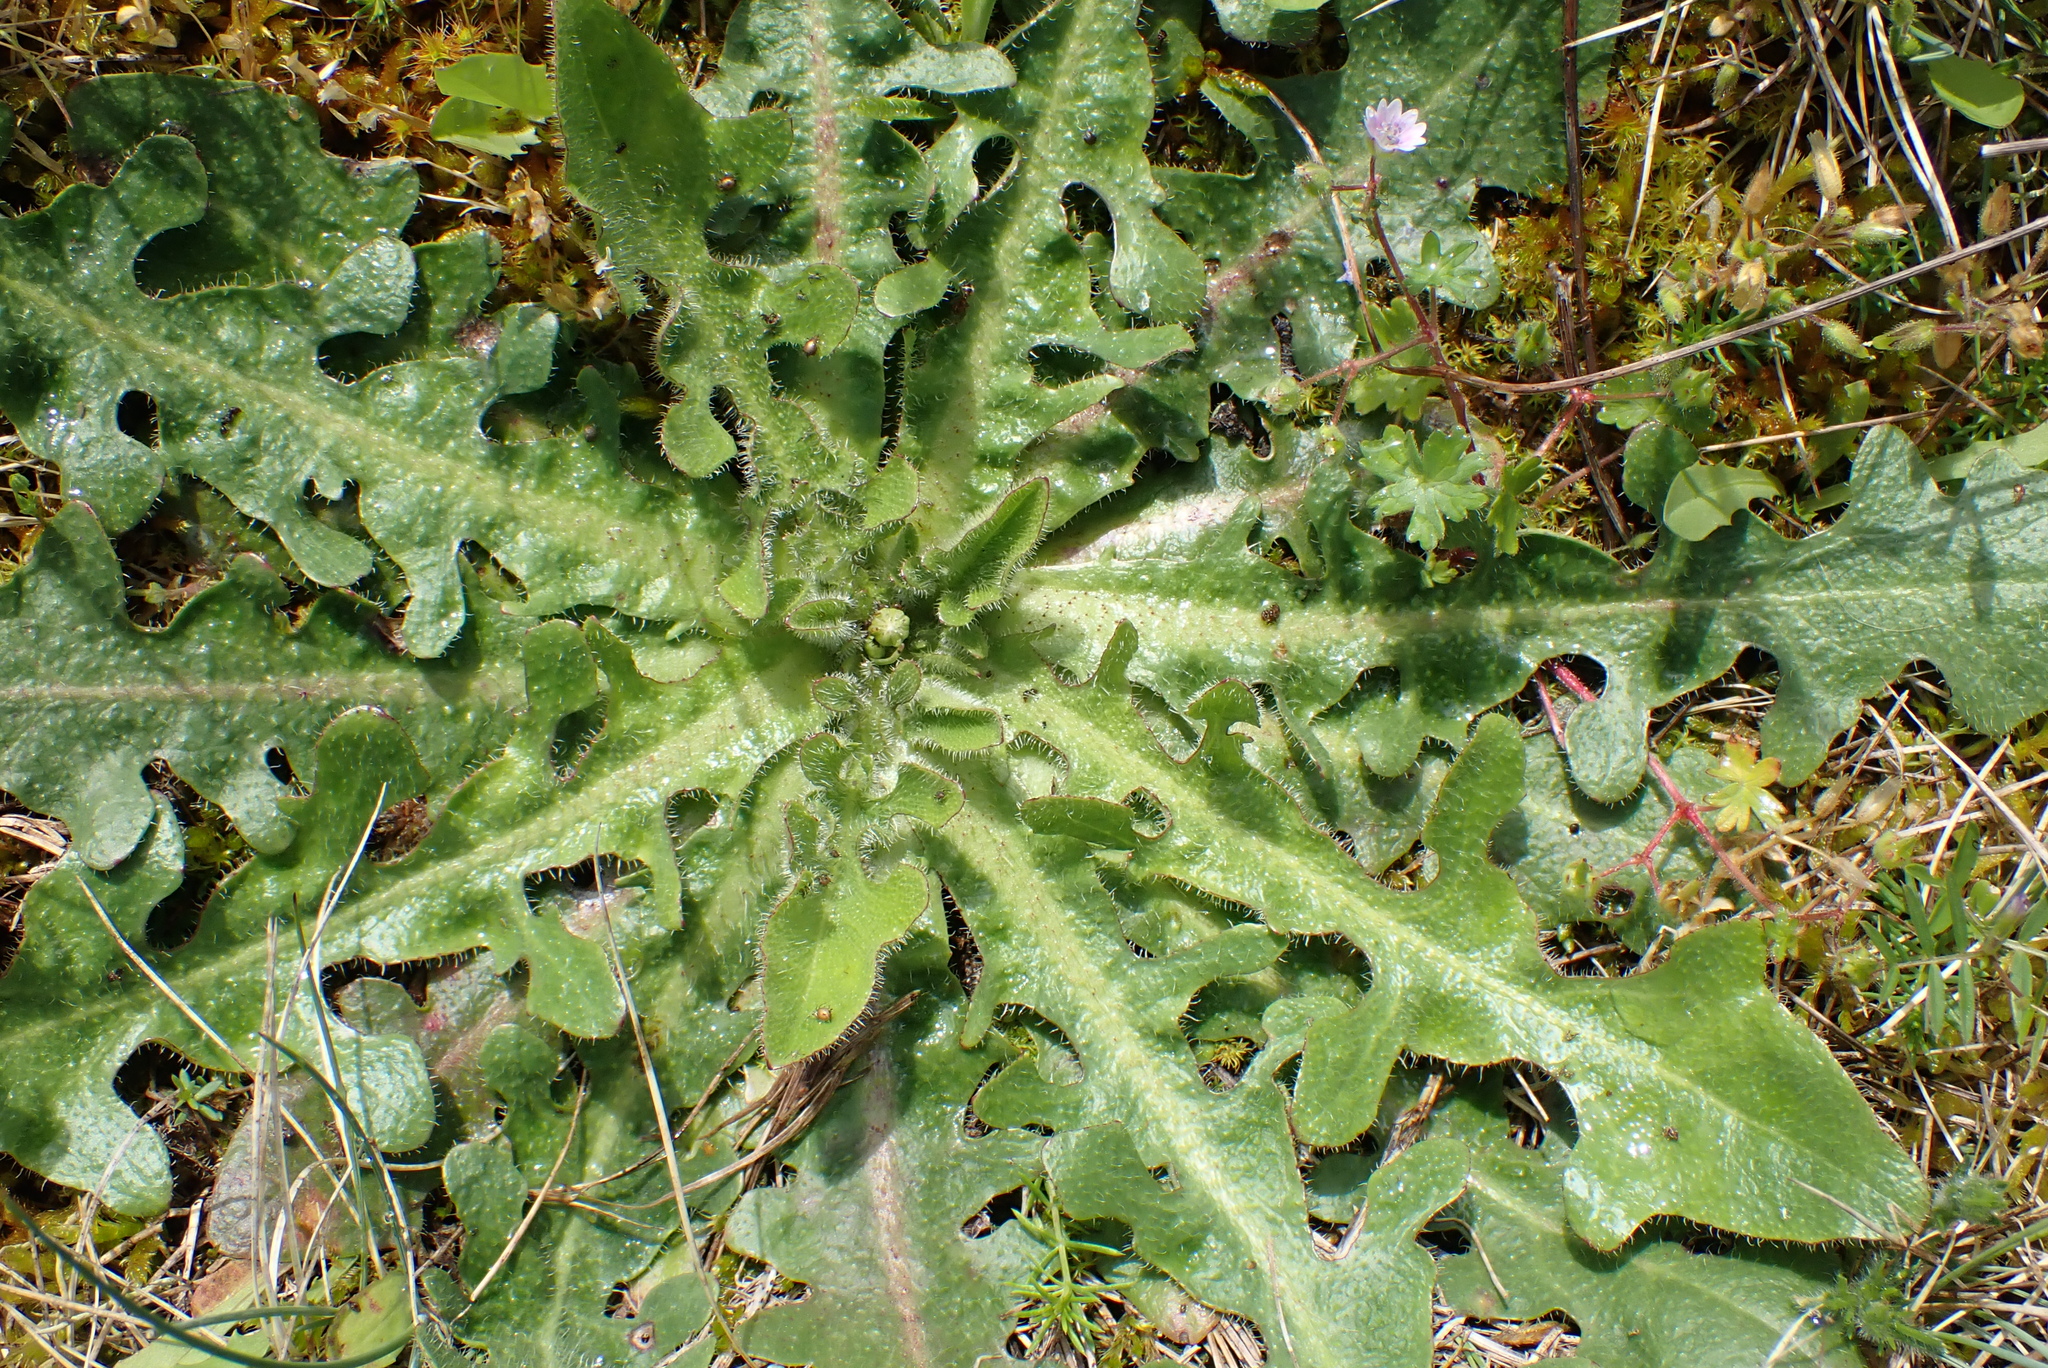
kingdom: Plantae
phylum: Tracheophyta
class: Magnoliopsida
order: Asterales
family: Asteraceae
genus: Hypochaeris
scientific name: Hypochaeris radicata
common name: Flatweed
